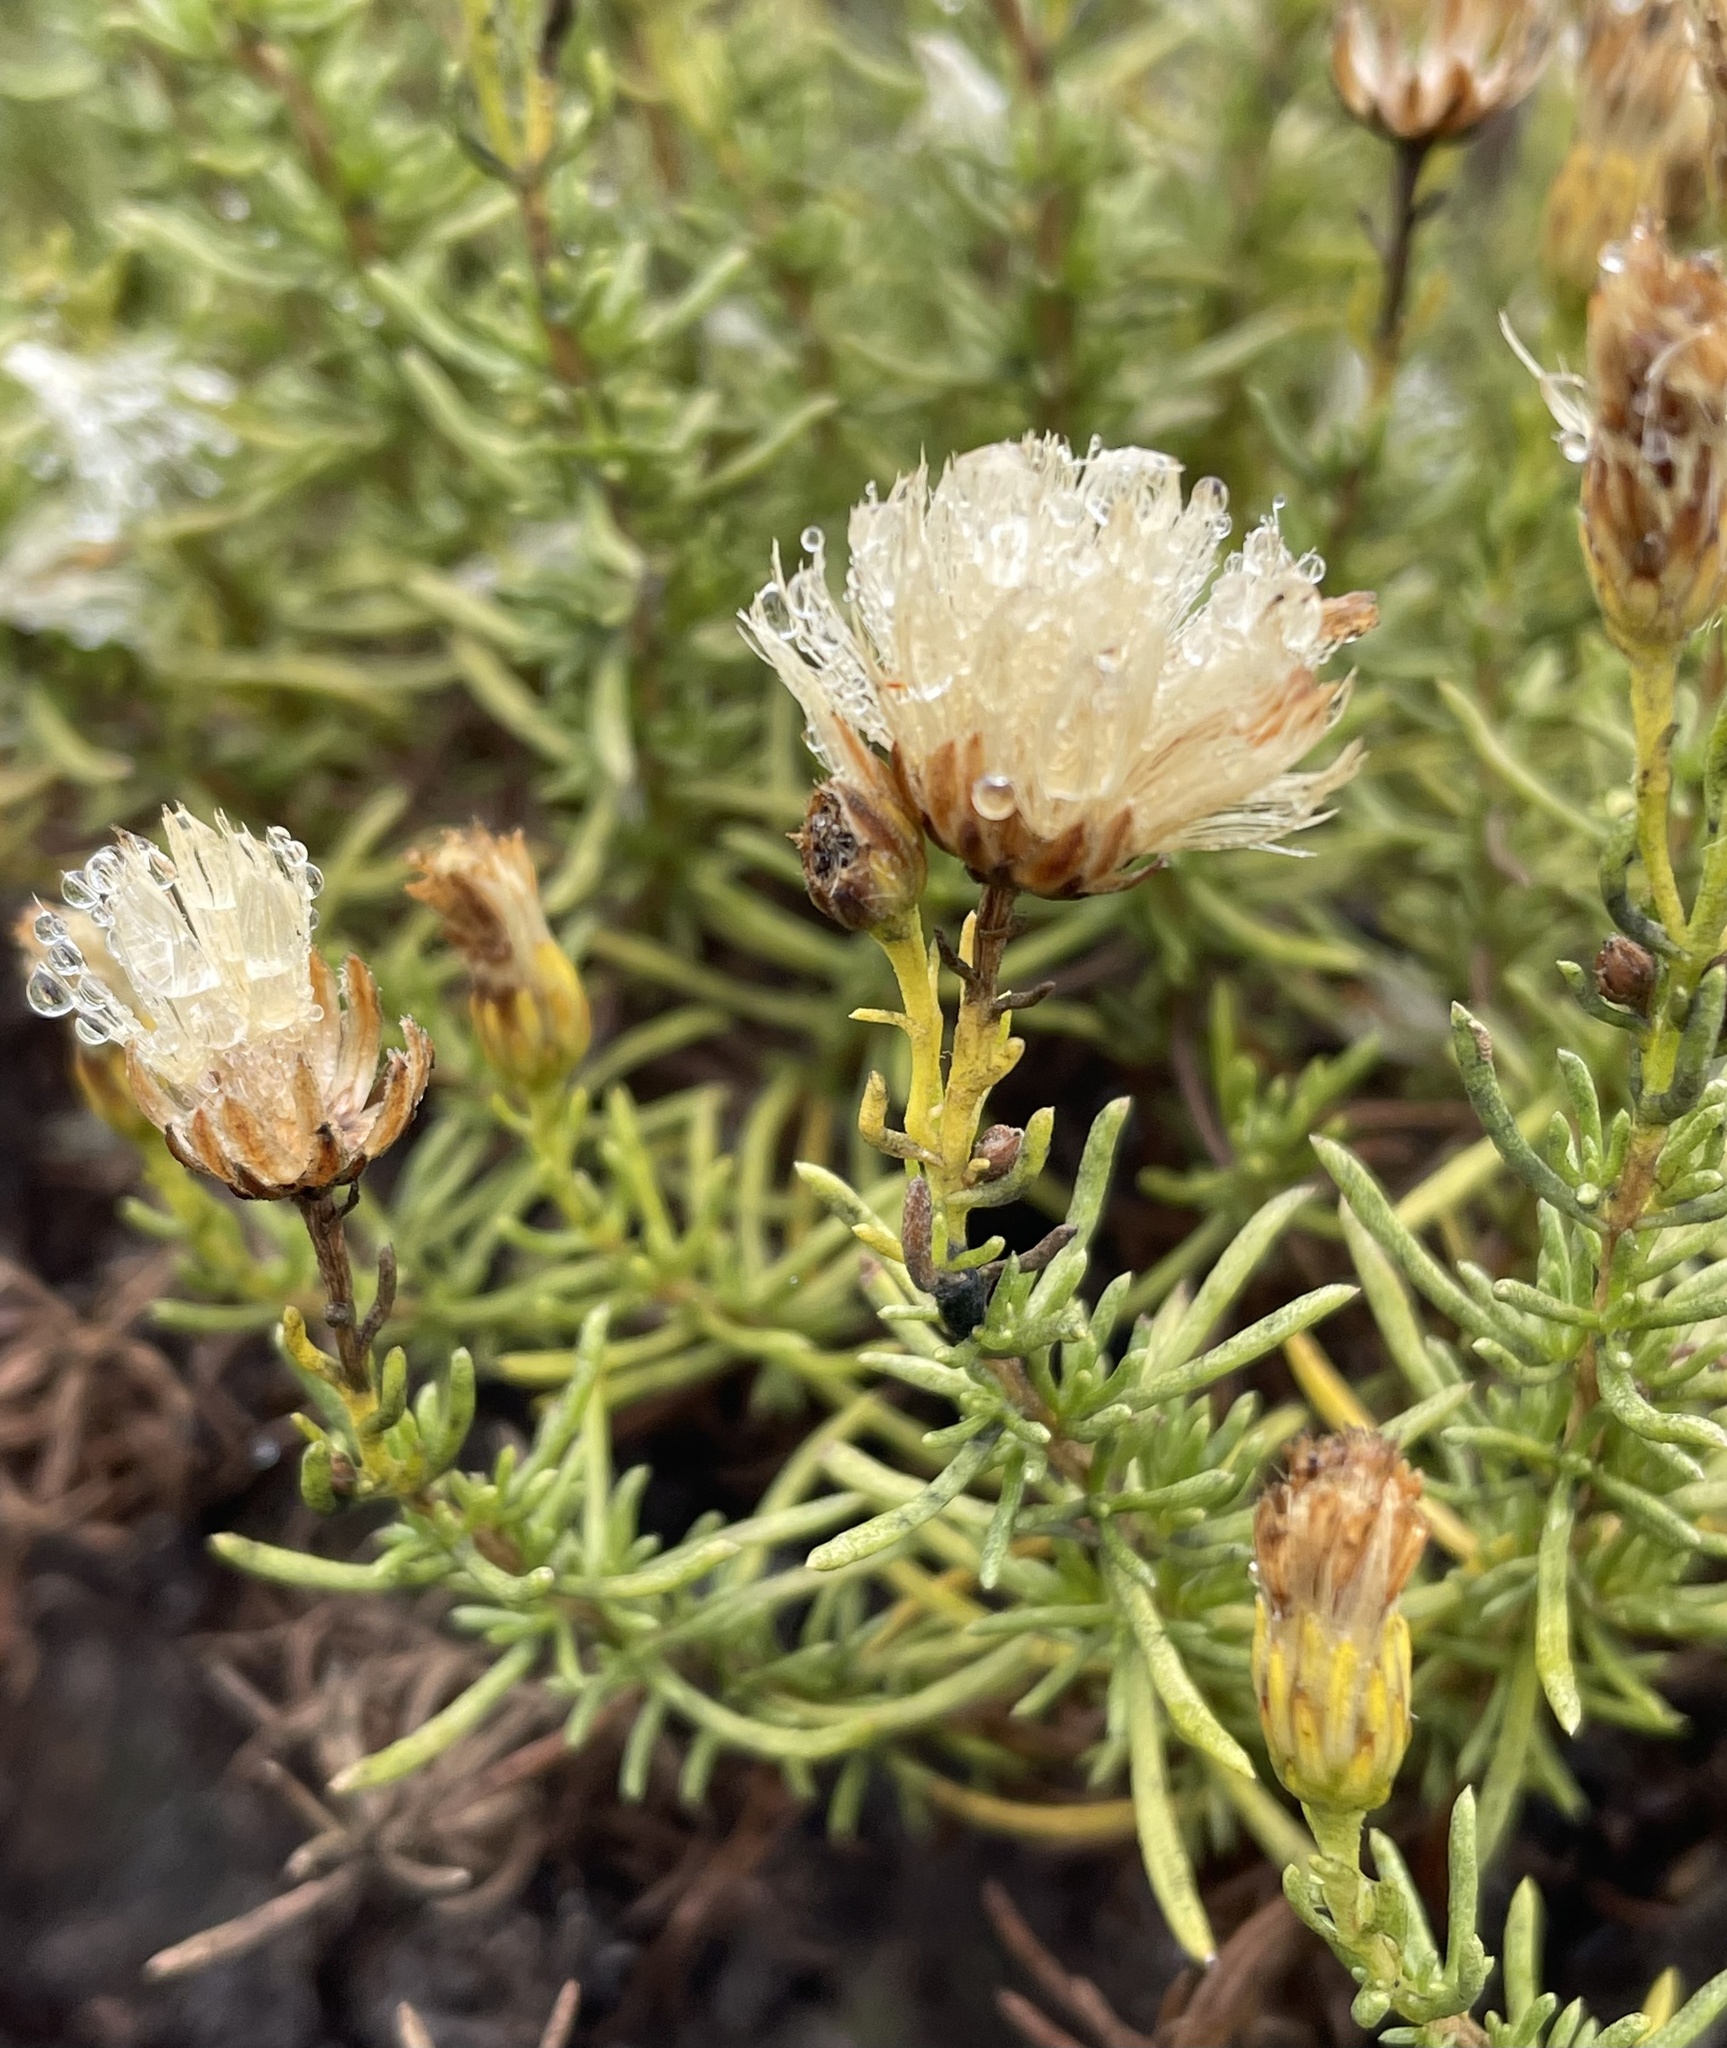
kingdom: Plantae
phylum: Tracheophyta
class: Magnoliopsida
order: Asterales
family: Asteraceae
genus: Ericameria
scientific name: Ericameria fasciculata
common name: Eastwood's goldenbush
